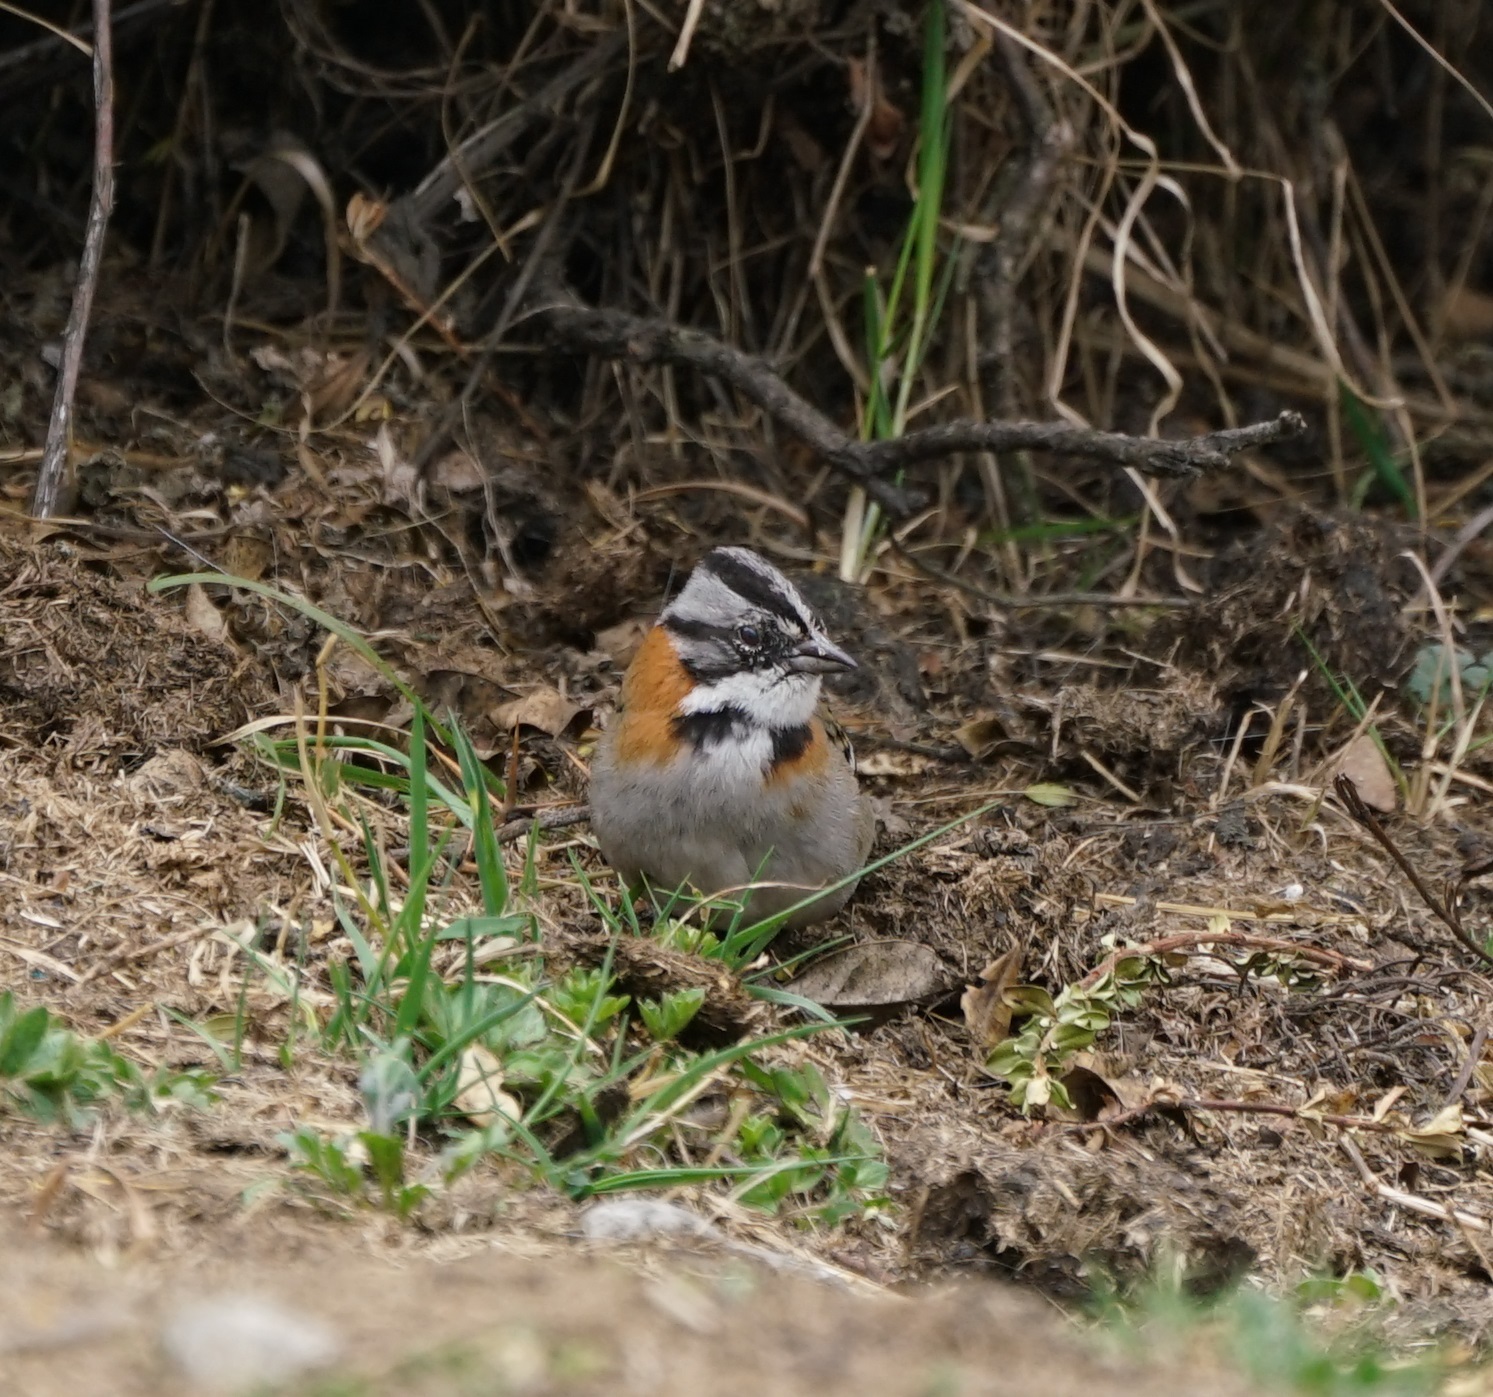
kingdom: Animalia
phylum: Chordata
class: Aves
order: Passeriformes
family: Passerellidae
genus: Zonotrichia
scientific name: Zonotrichia capensis
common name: Rufous-collared sparrow
